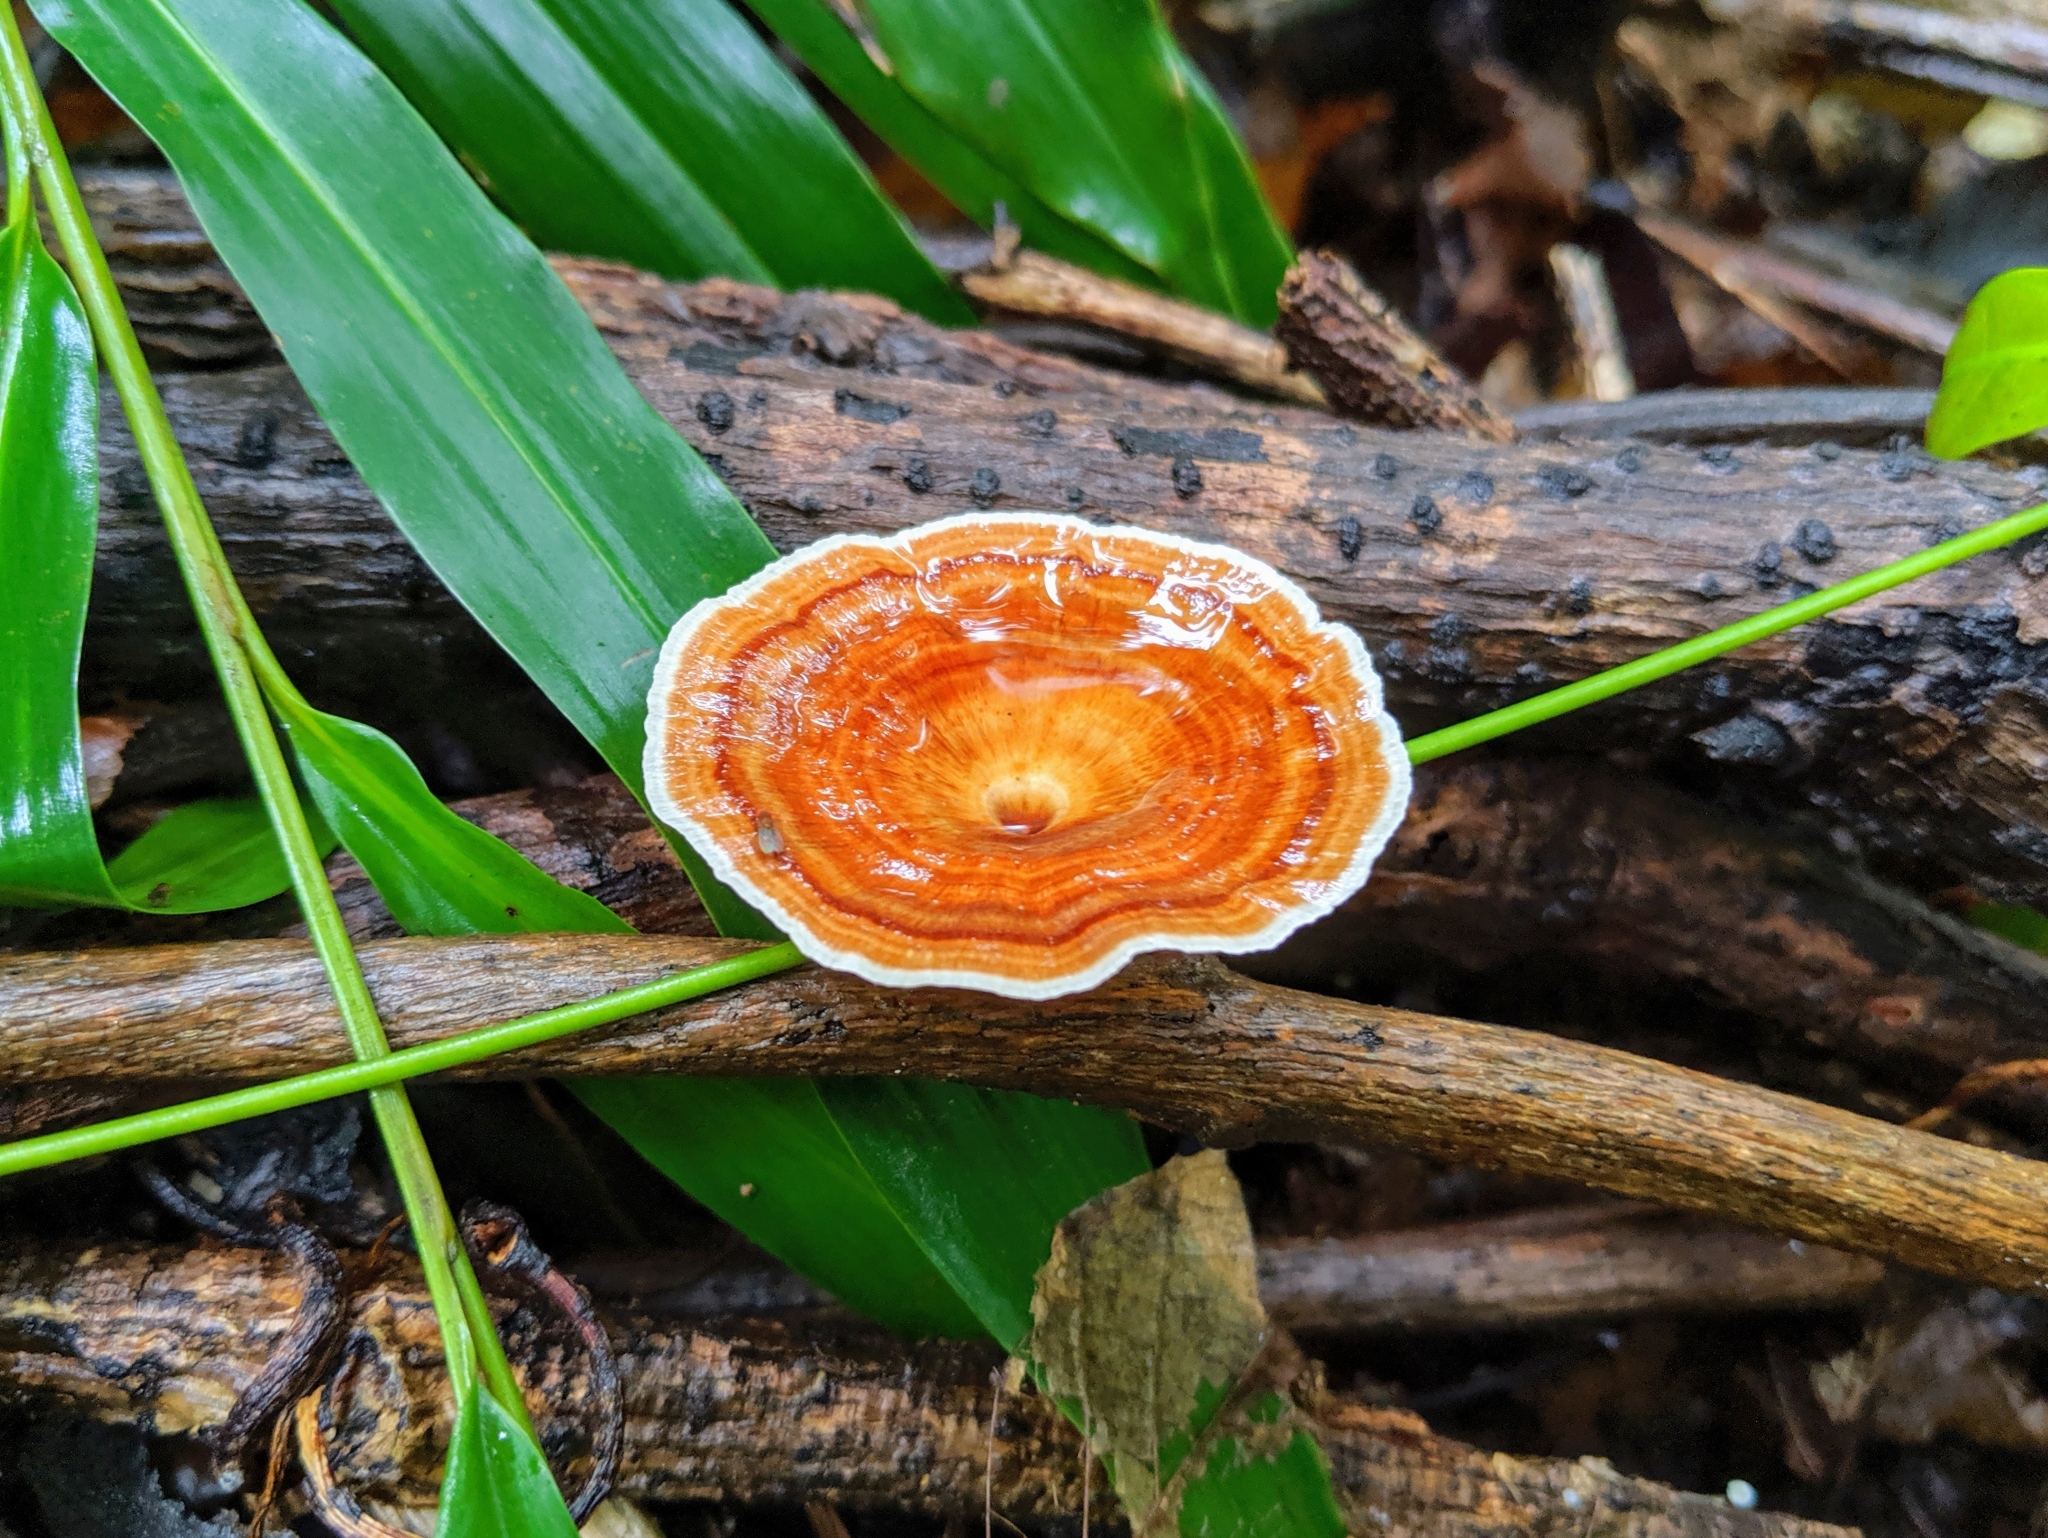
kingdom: Fungi
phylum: Basidiomycota
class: Agaricomycetes
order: Polyporales
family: Polyporaceae
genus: Microporus
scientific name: Microporus xanthopus
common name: Yellow-stemmed micropore
